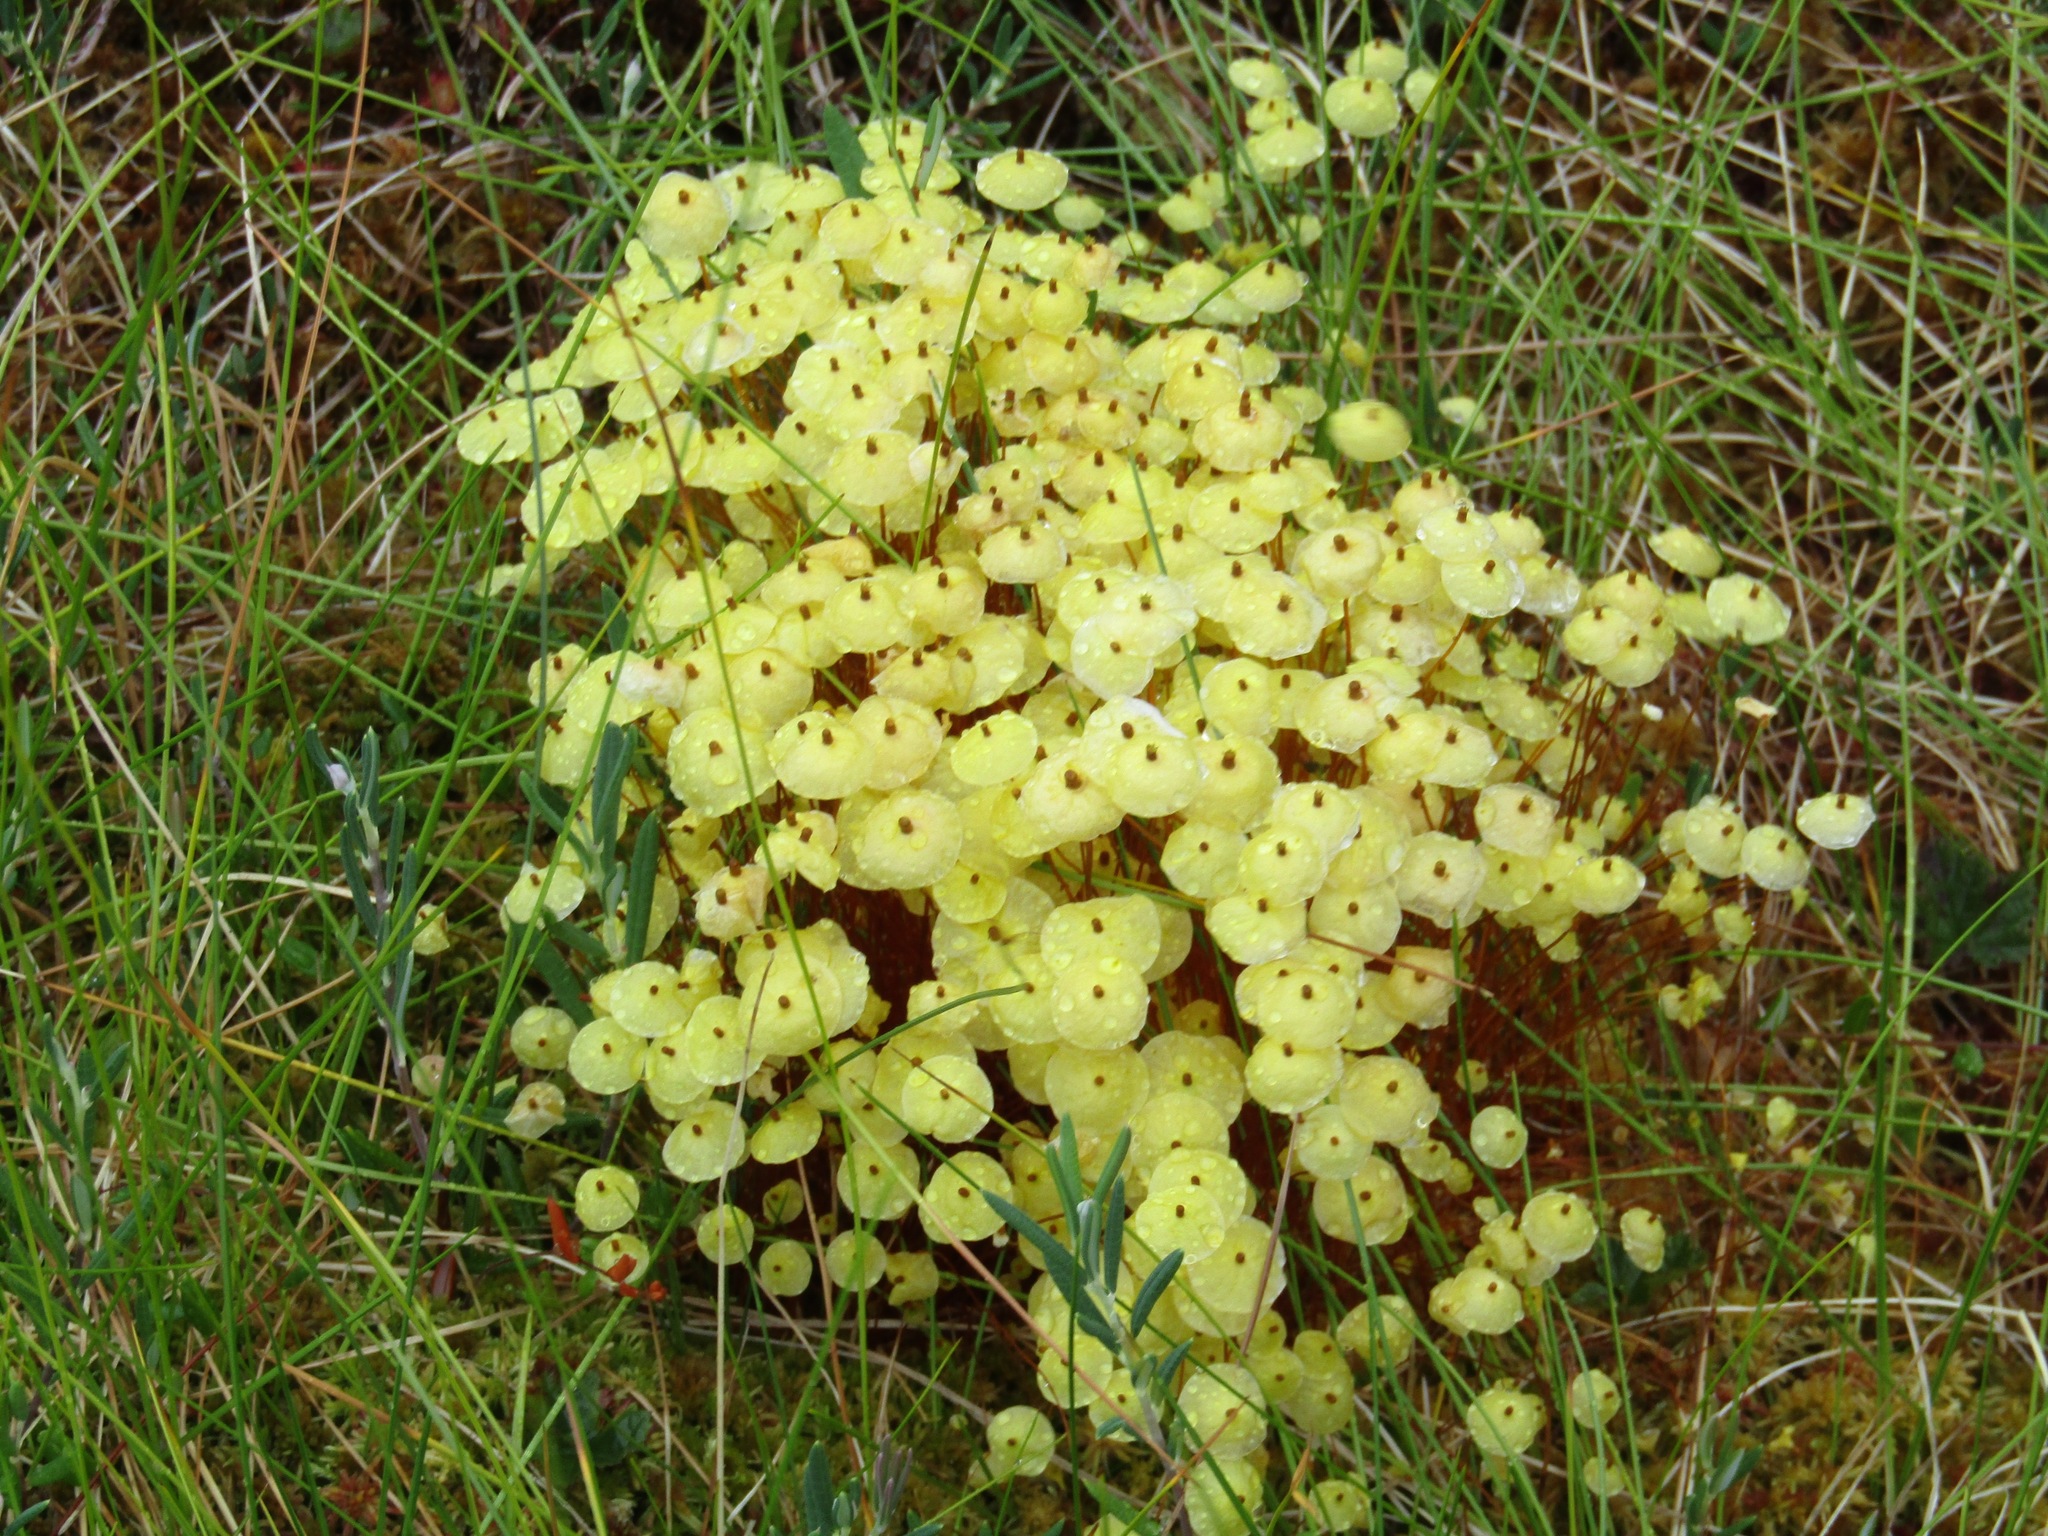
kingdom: Plantae
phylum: Bryophyta
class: Bryopsida
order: Splachnales
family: Splachnaceae
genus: Splachnum
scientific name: Splachnum luteum
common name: Yellow dung moss
